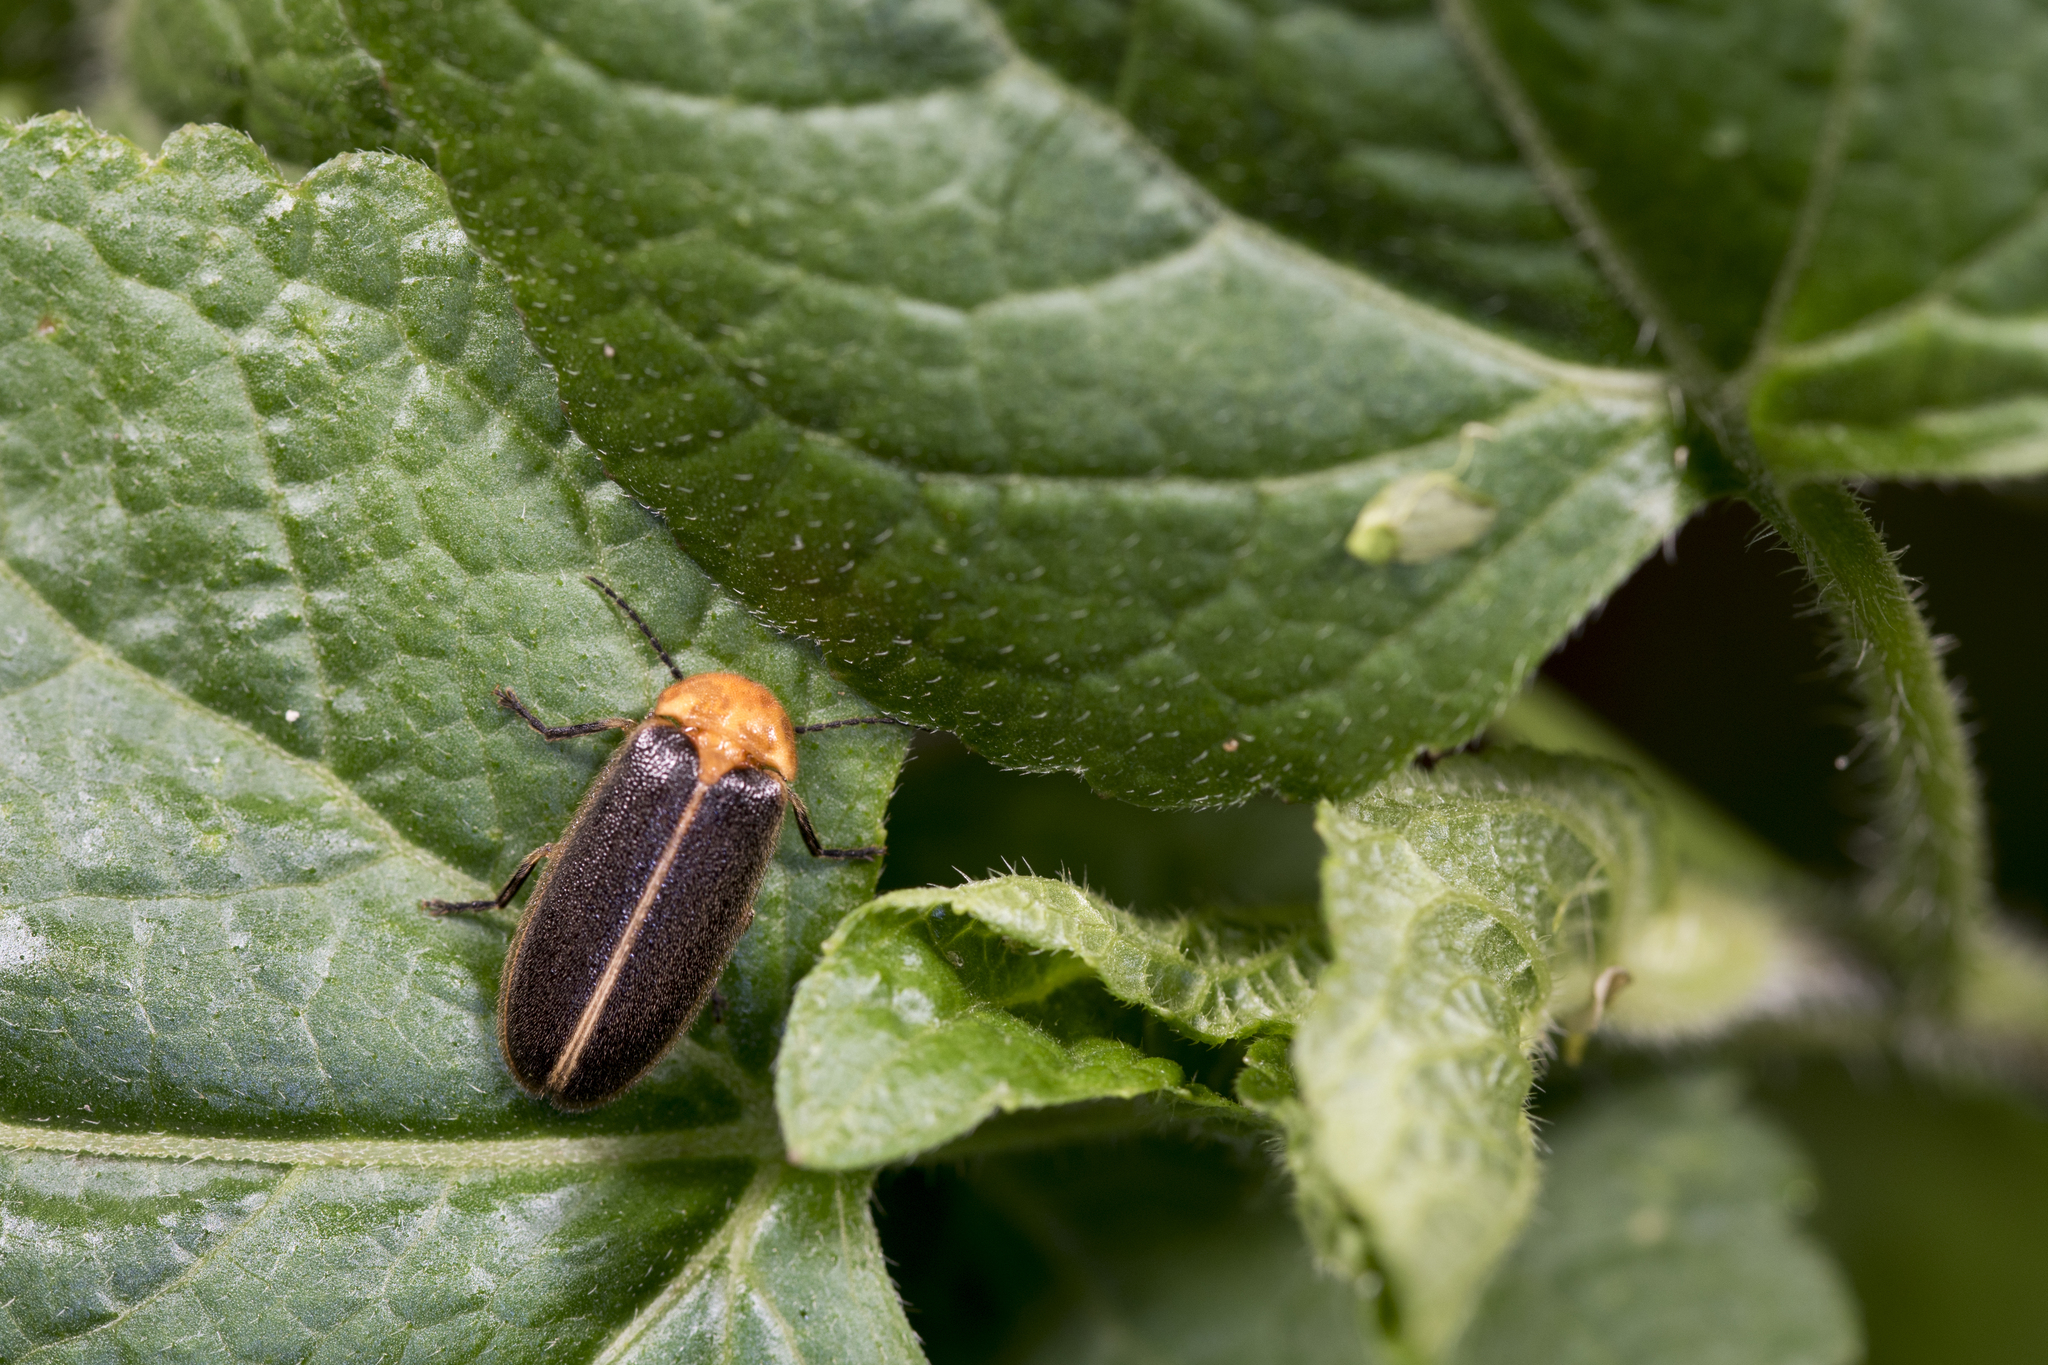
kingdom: Animalia
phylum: Arthropoda
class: Insecta
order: Coleoptera
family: Lampyridae
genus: Aquatica
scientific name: Aquatica ficta
